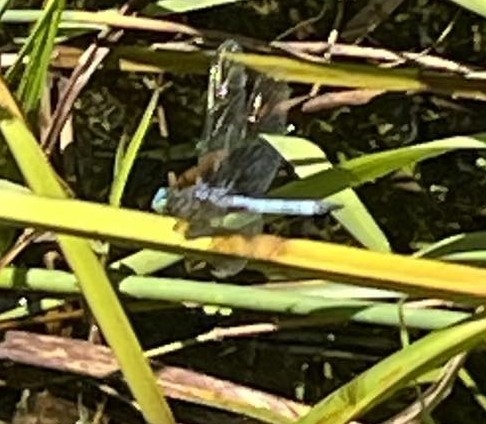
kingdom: Animalia
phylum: Arthropoda
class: Insecta
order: Odonata
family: Libellulidae
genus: Pachydiplax
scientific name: Pachydiplax longipennis
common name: Blue dasher
